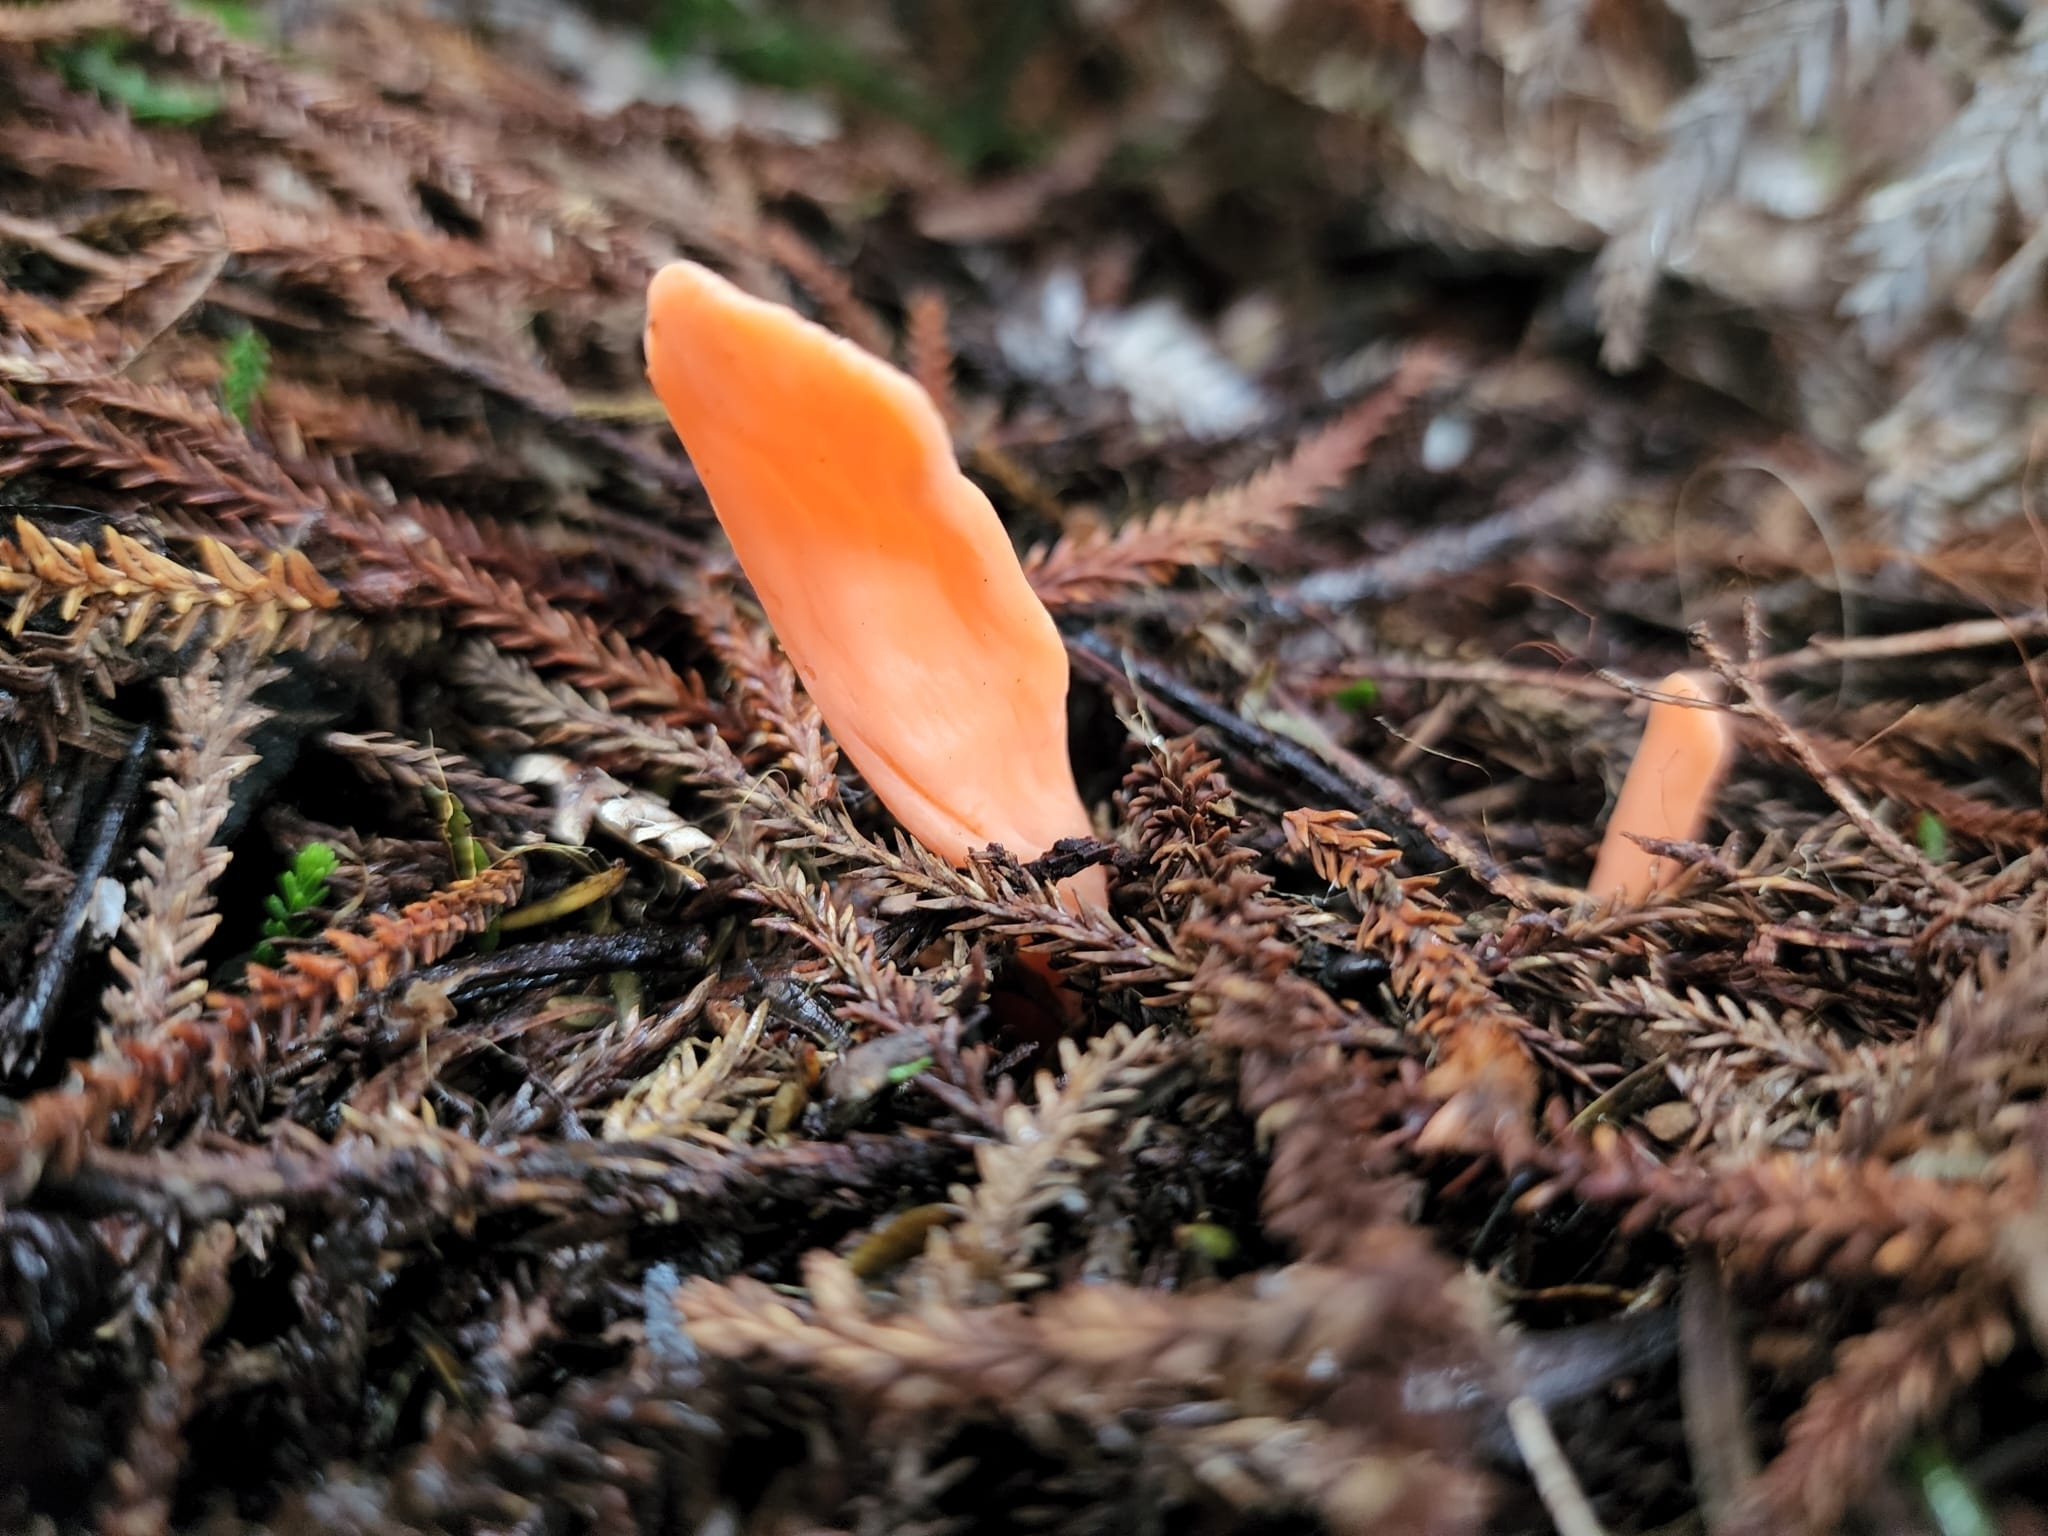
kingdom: Fungi
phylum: Basidiomycota
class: Agaricomycetes
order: Agaricales
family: Clavariaceae
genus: Clavulinopsis
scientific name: Clavulinopsis sulcata
